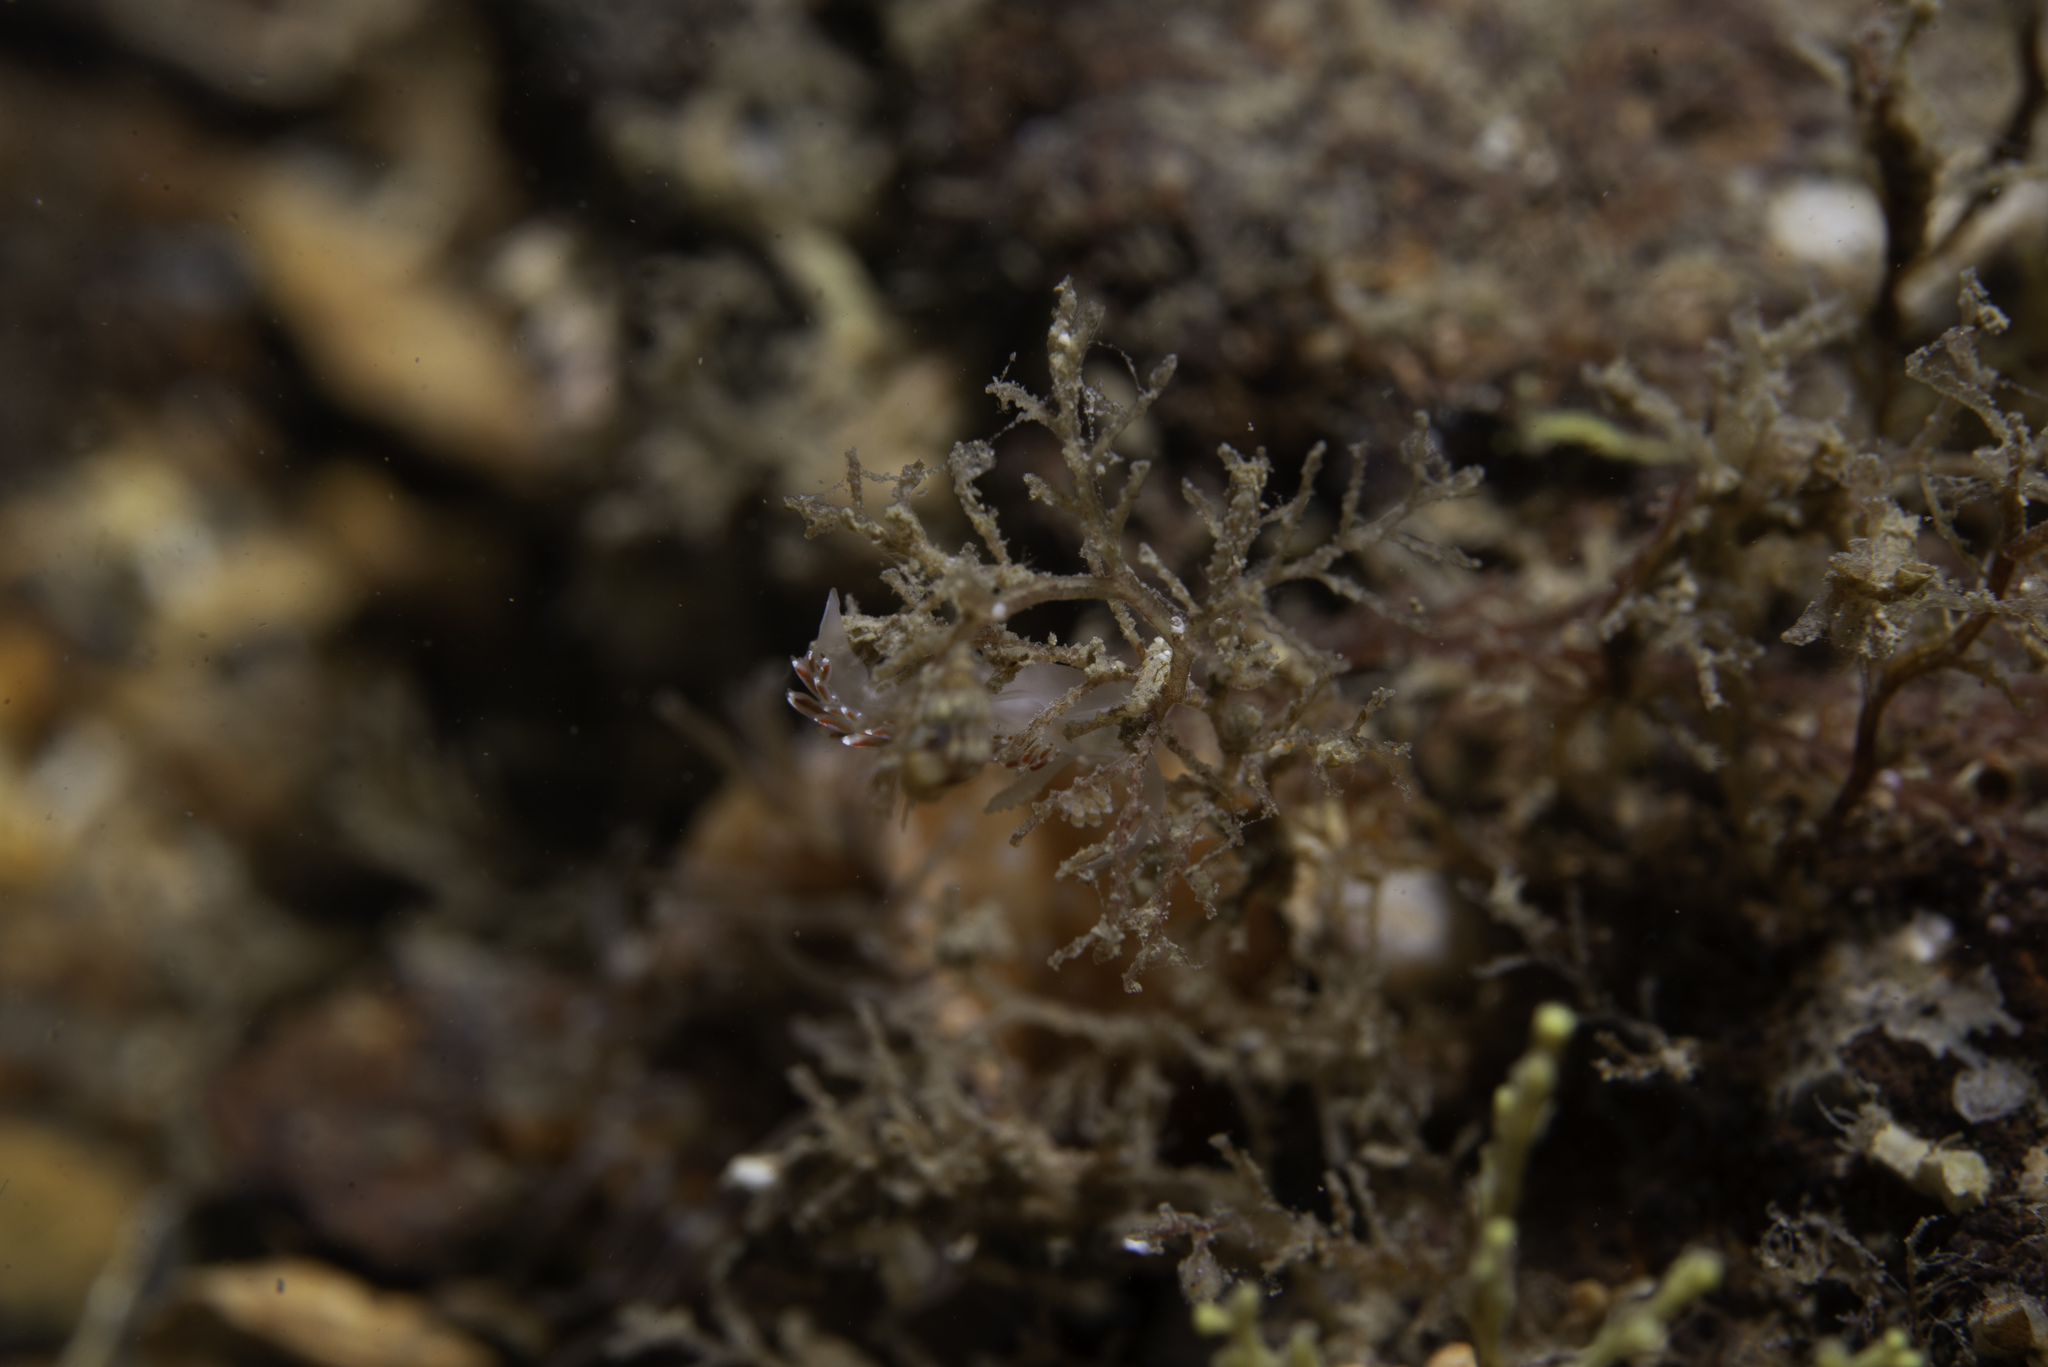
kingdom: Animalia
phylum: Mollusca
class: Gastropoda
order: Nudibranchia
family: Facelinidae
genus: Facelina
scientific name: Facelina auriculata
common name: Slender facelina
